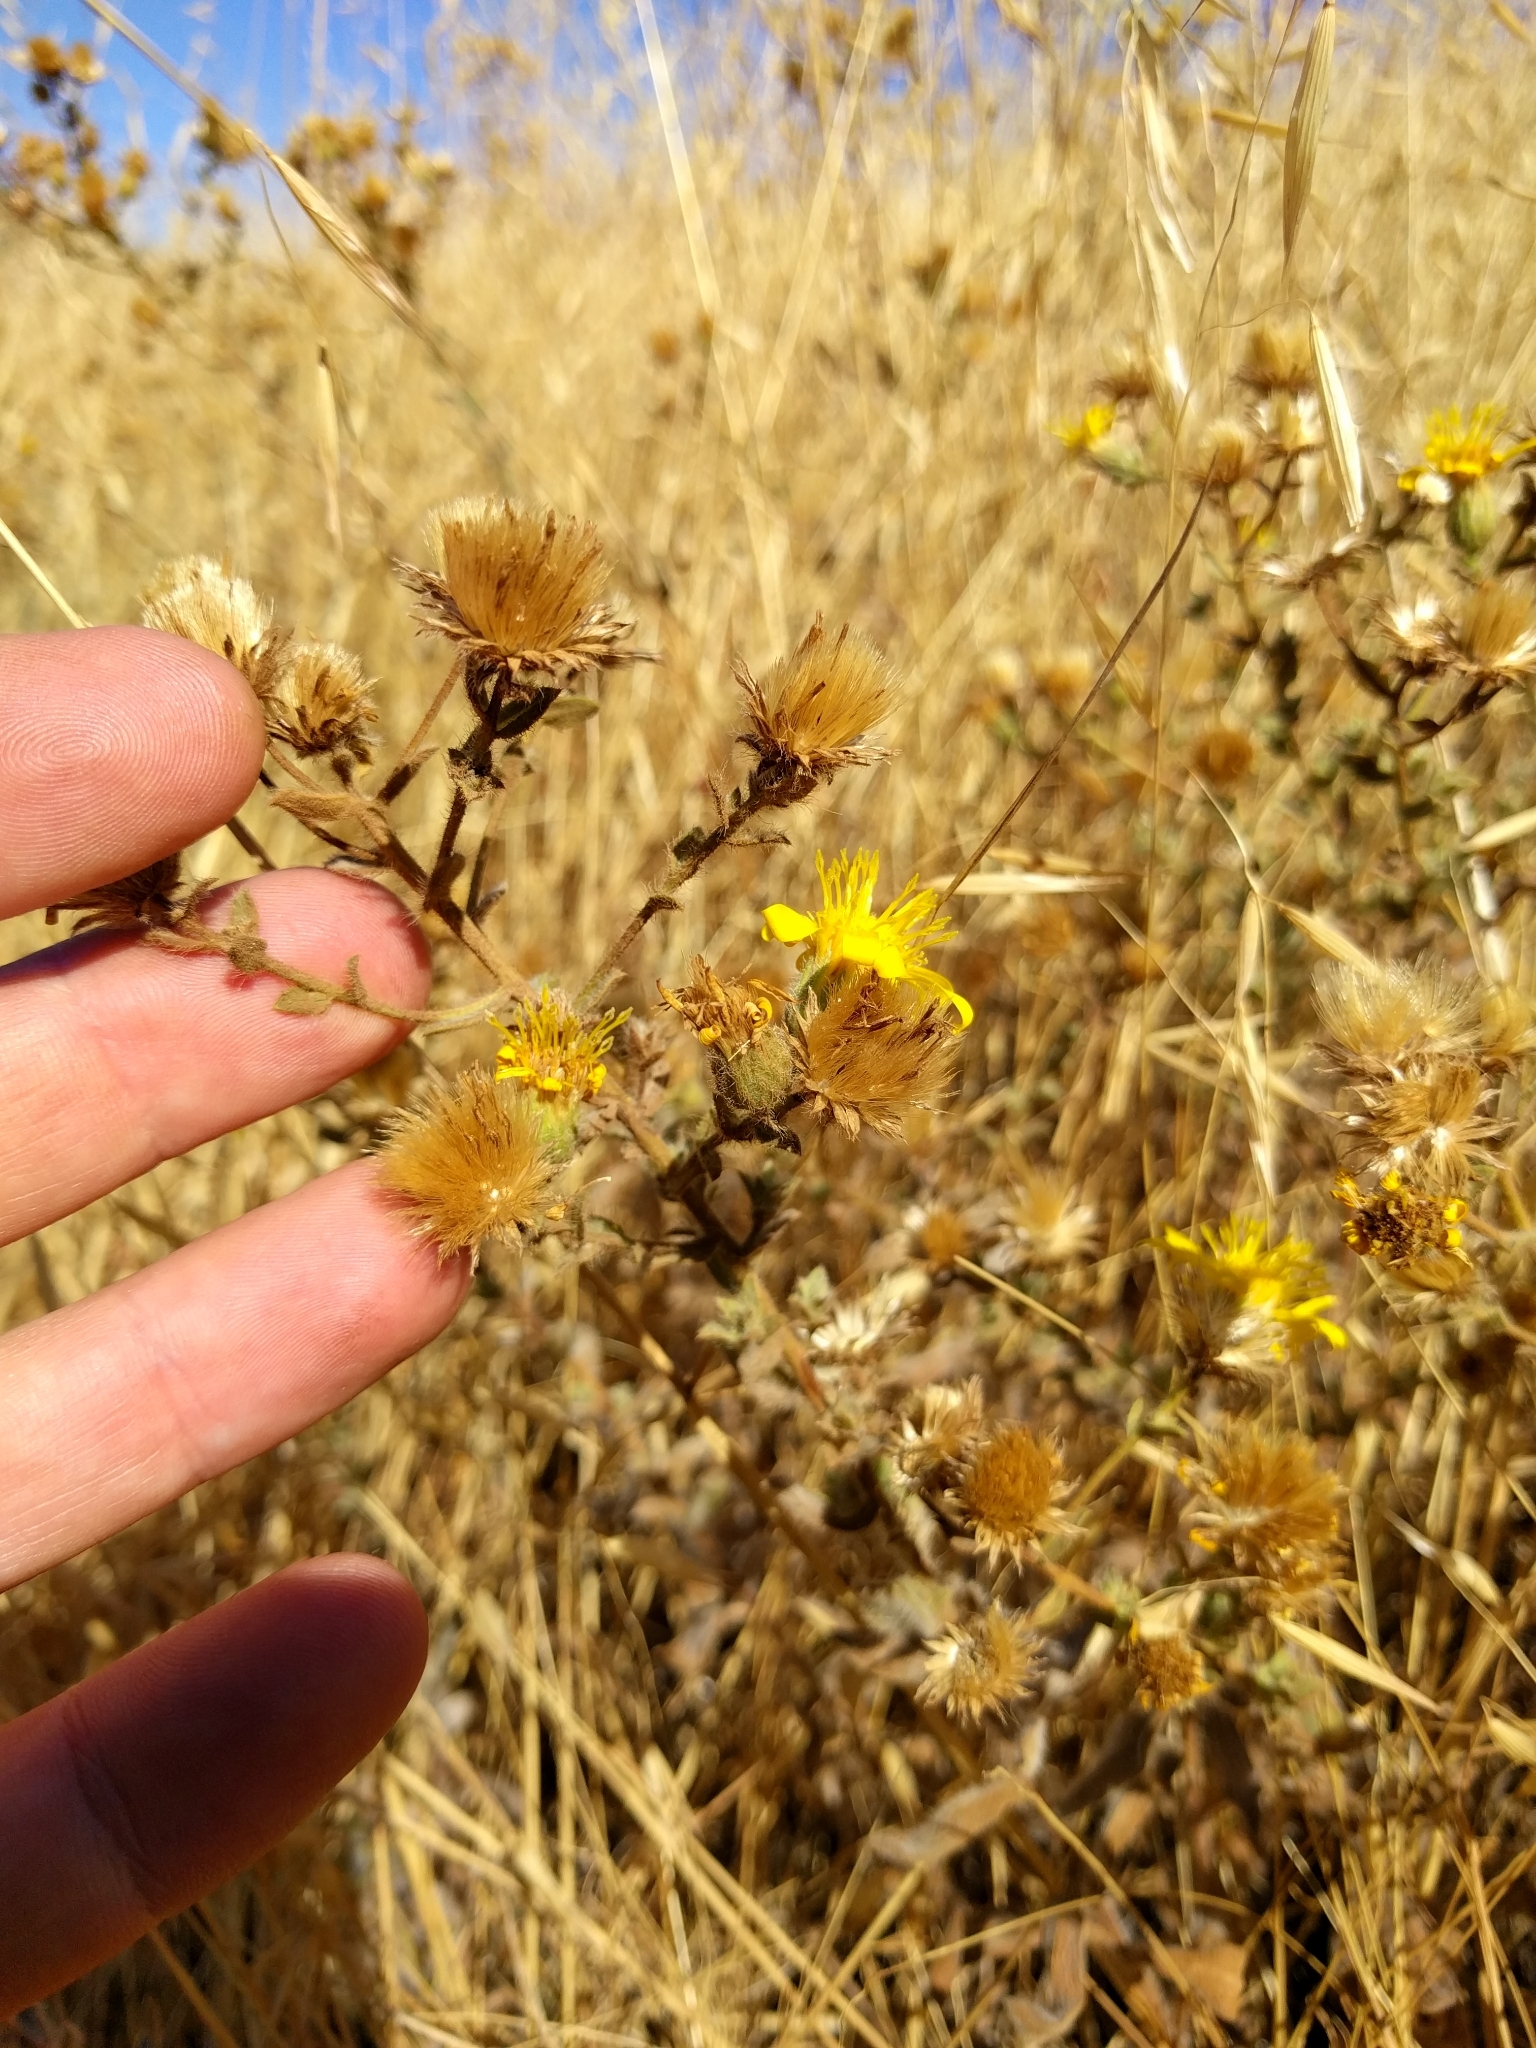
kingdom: Plantae
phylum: Tracheophyta
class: Magnoliopsida
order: Asterales
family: Asteraceae
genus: Heterotheca
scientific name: Heterotheca sessiliflora
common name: Sessile-flower golden-aster
